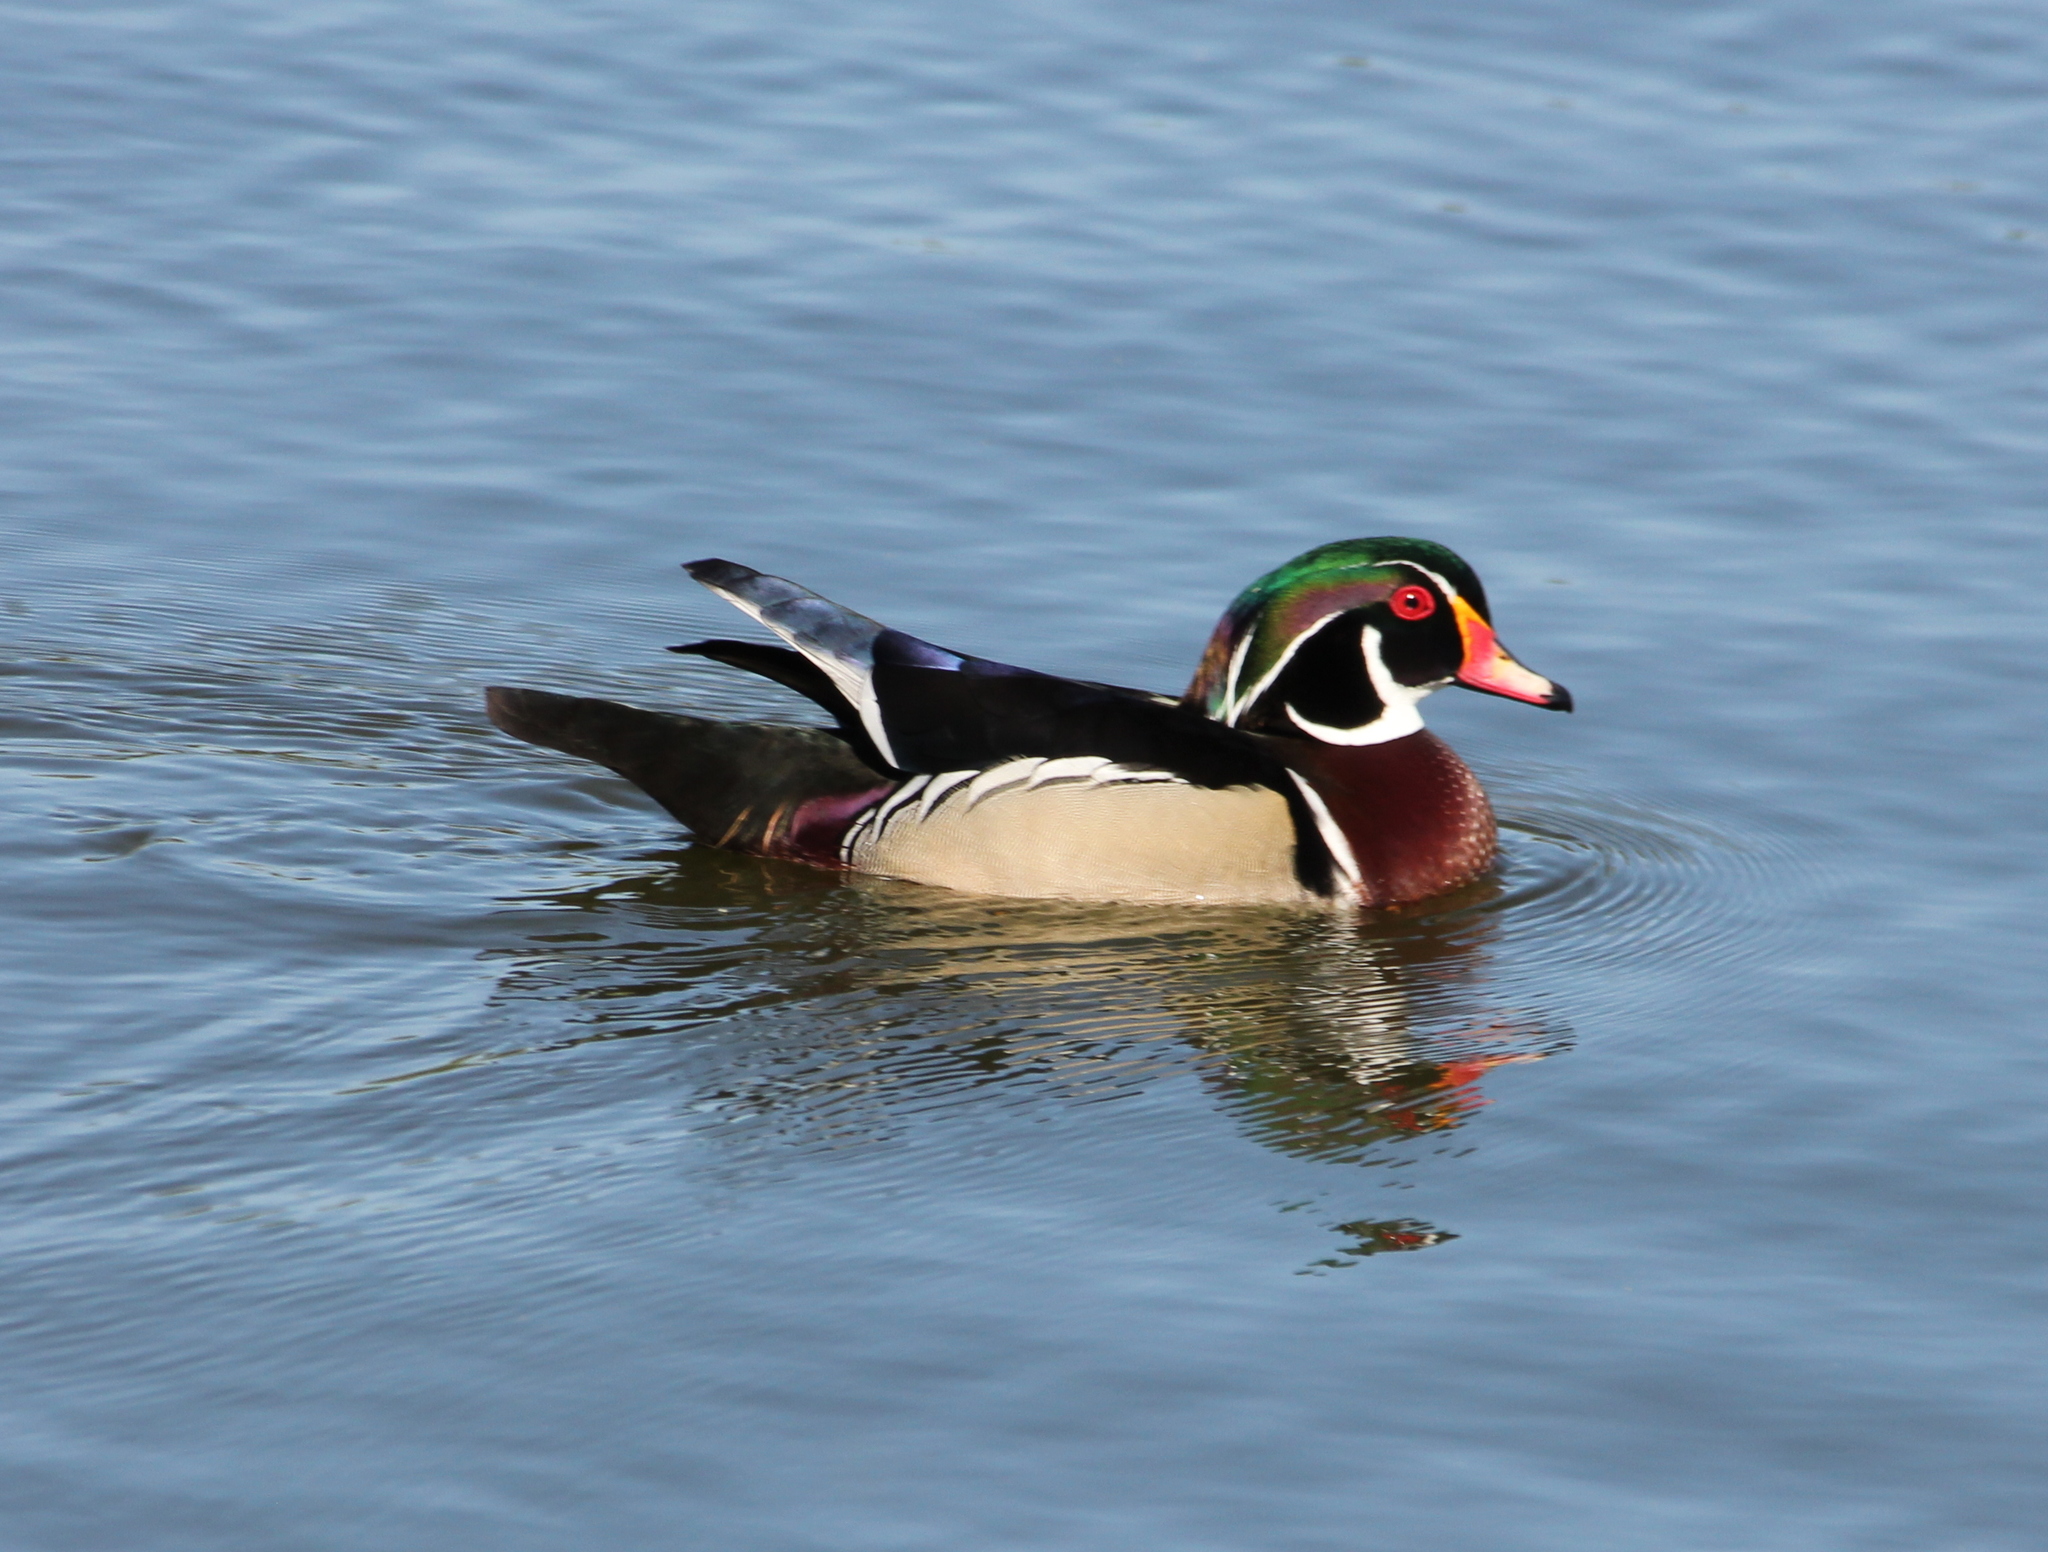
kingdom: Animalia
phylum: Chordata
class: Aves
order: Anseriformes
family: Anatidae
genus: Aix
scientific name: Aix sponsa
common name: Wood duck
